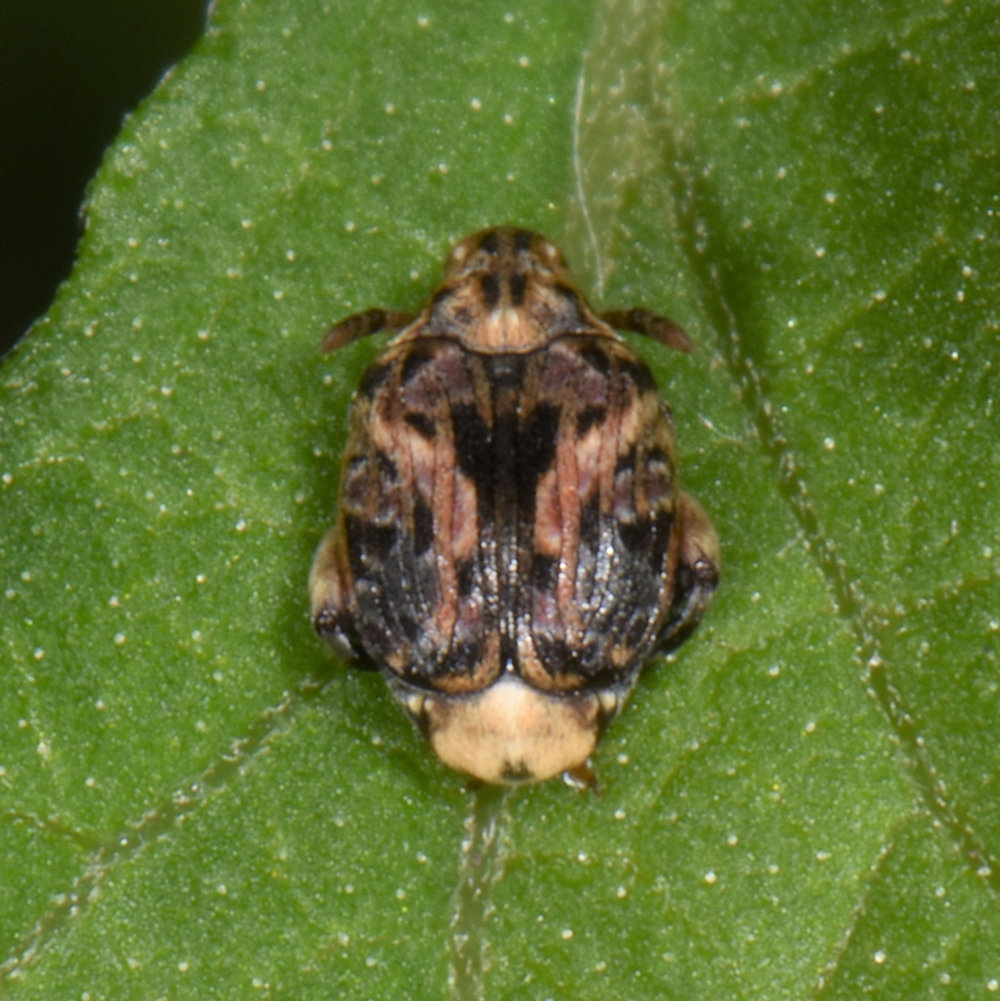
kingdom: Animalia
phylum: Arthropoda
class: Insecta
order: Coleoptera
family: Chrysomelidae
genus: Gibbobruchus
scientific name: Gibbobruchus mimus
